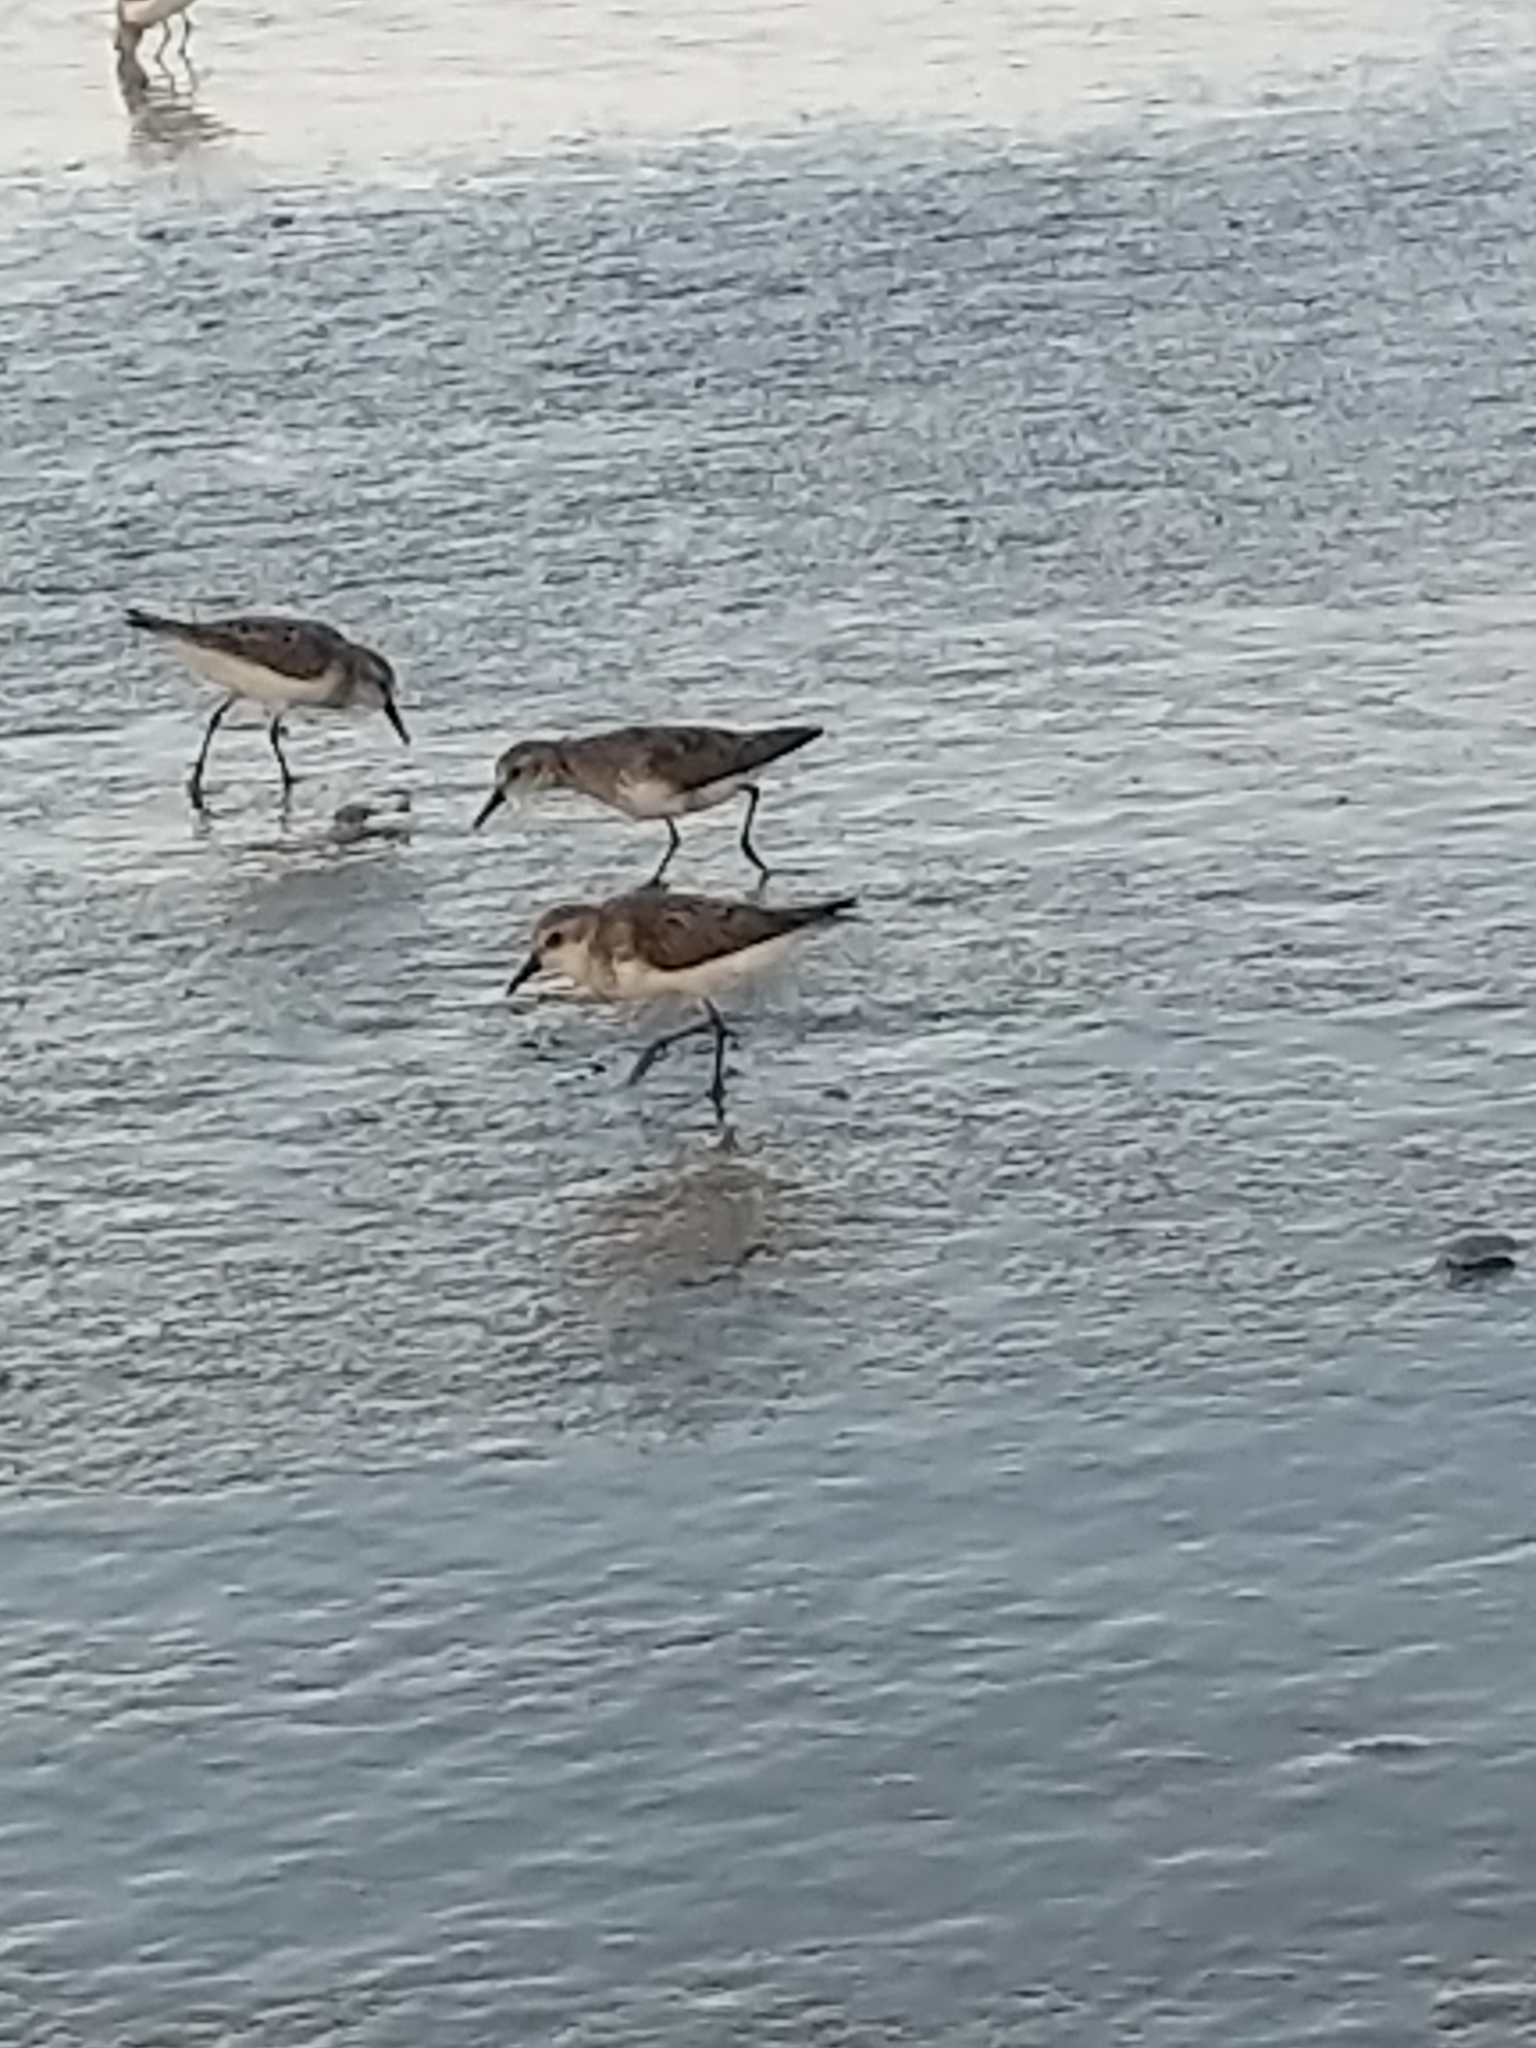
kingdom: Animalia
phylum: Chordata
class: Aves
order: Charadriiformes
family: Scolopacidae
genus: Calidris
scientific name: Calidris pusilla
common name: Semipalmated sandpiper
